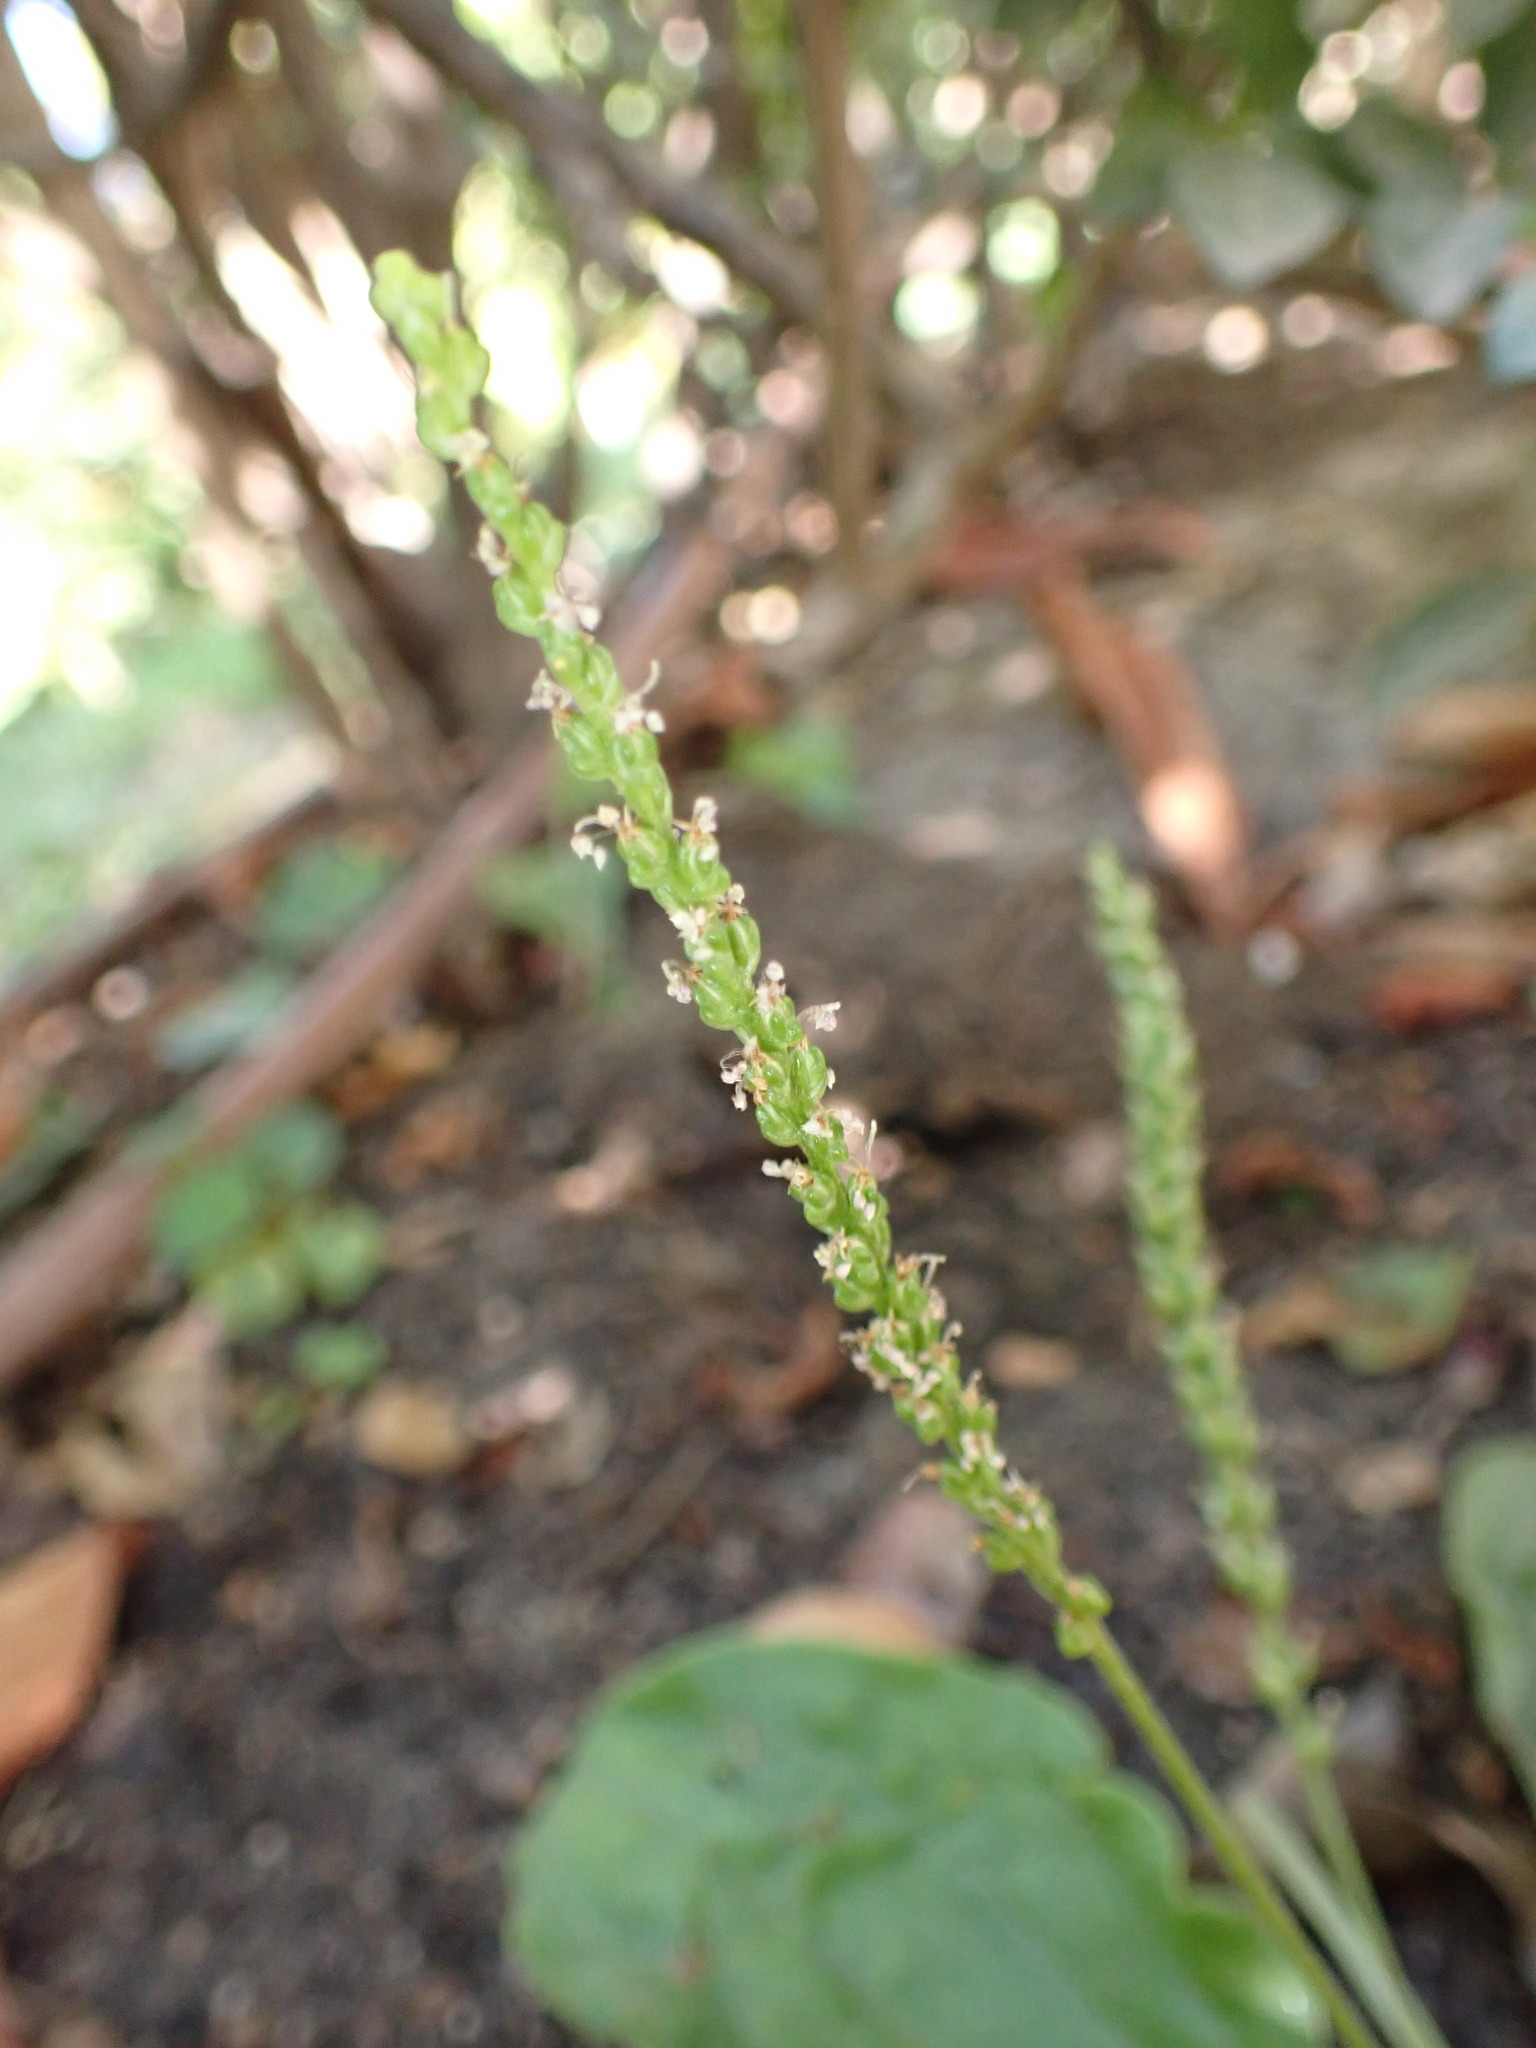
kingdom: Plantae
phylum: Tracheophyta
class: Magnoliopsida
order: Lamiales
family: Plantaginaceae
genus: Plantago
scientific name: Plantago major
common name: Common plantain
